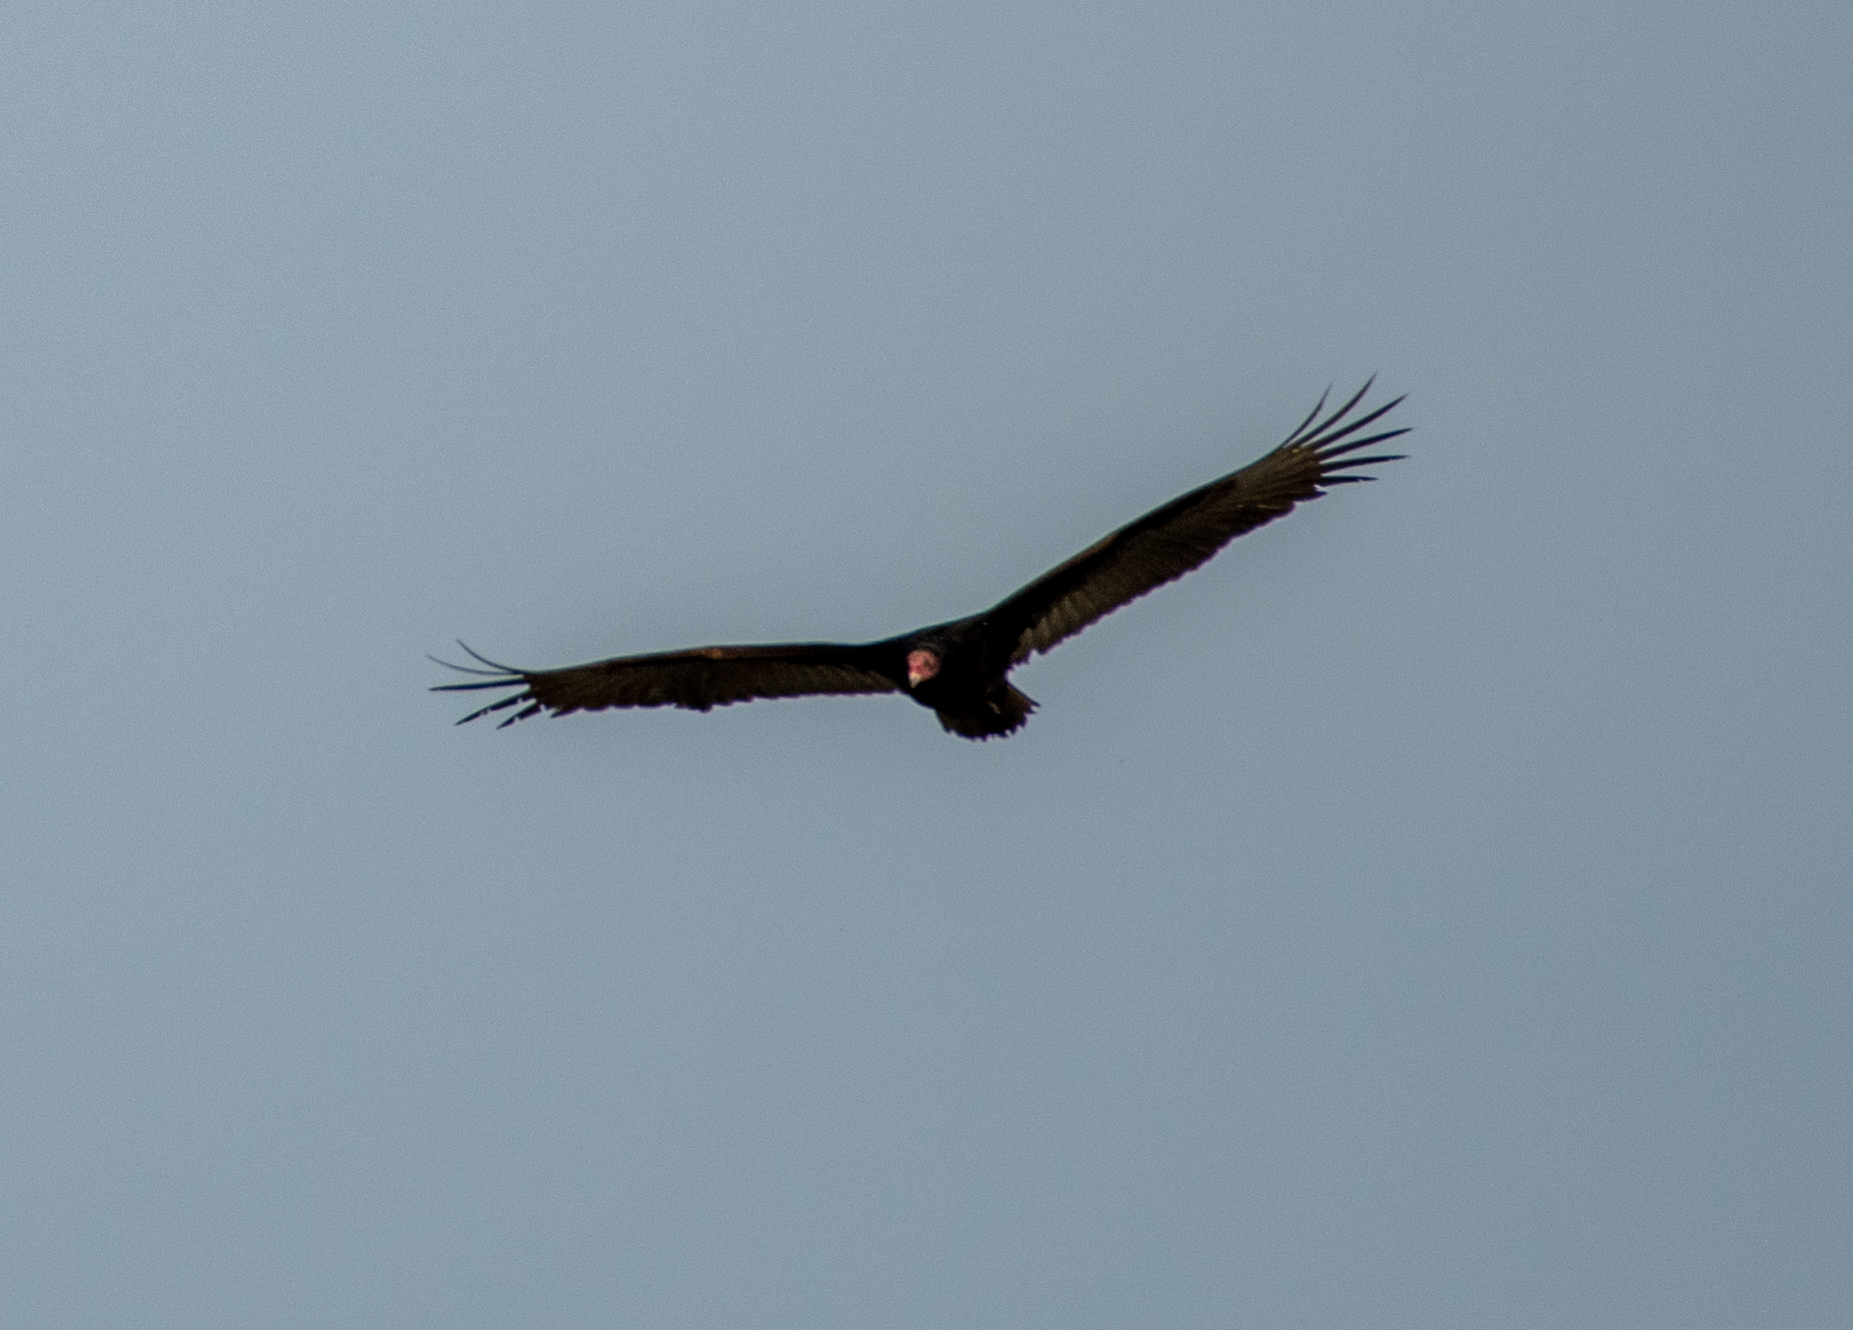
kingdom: Animalia
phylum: Chordata
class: Aves
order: Accipitriformes
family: Cathartidae
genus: Cathartes
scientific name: Cathartes aura
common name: Turkey vulture
